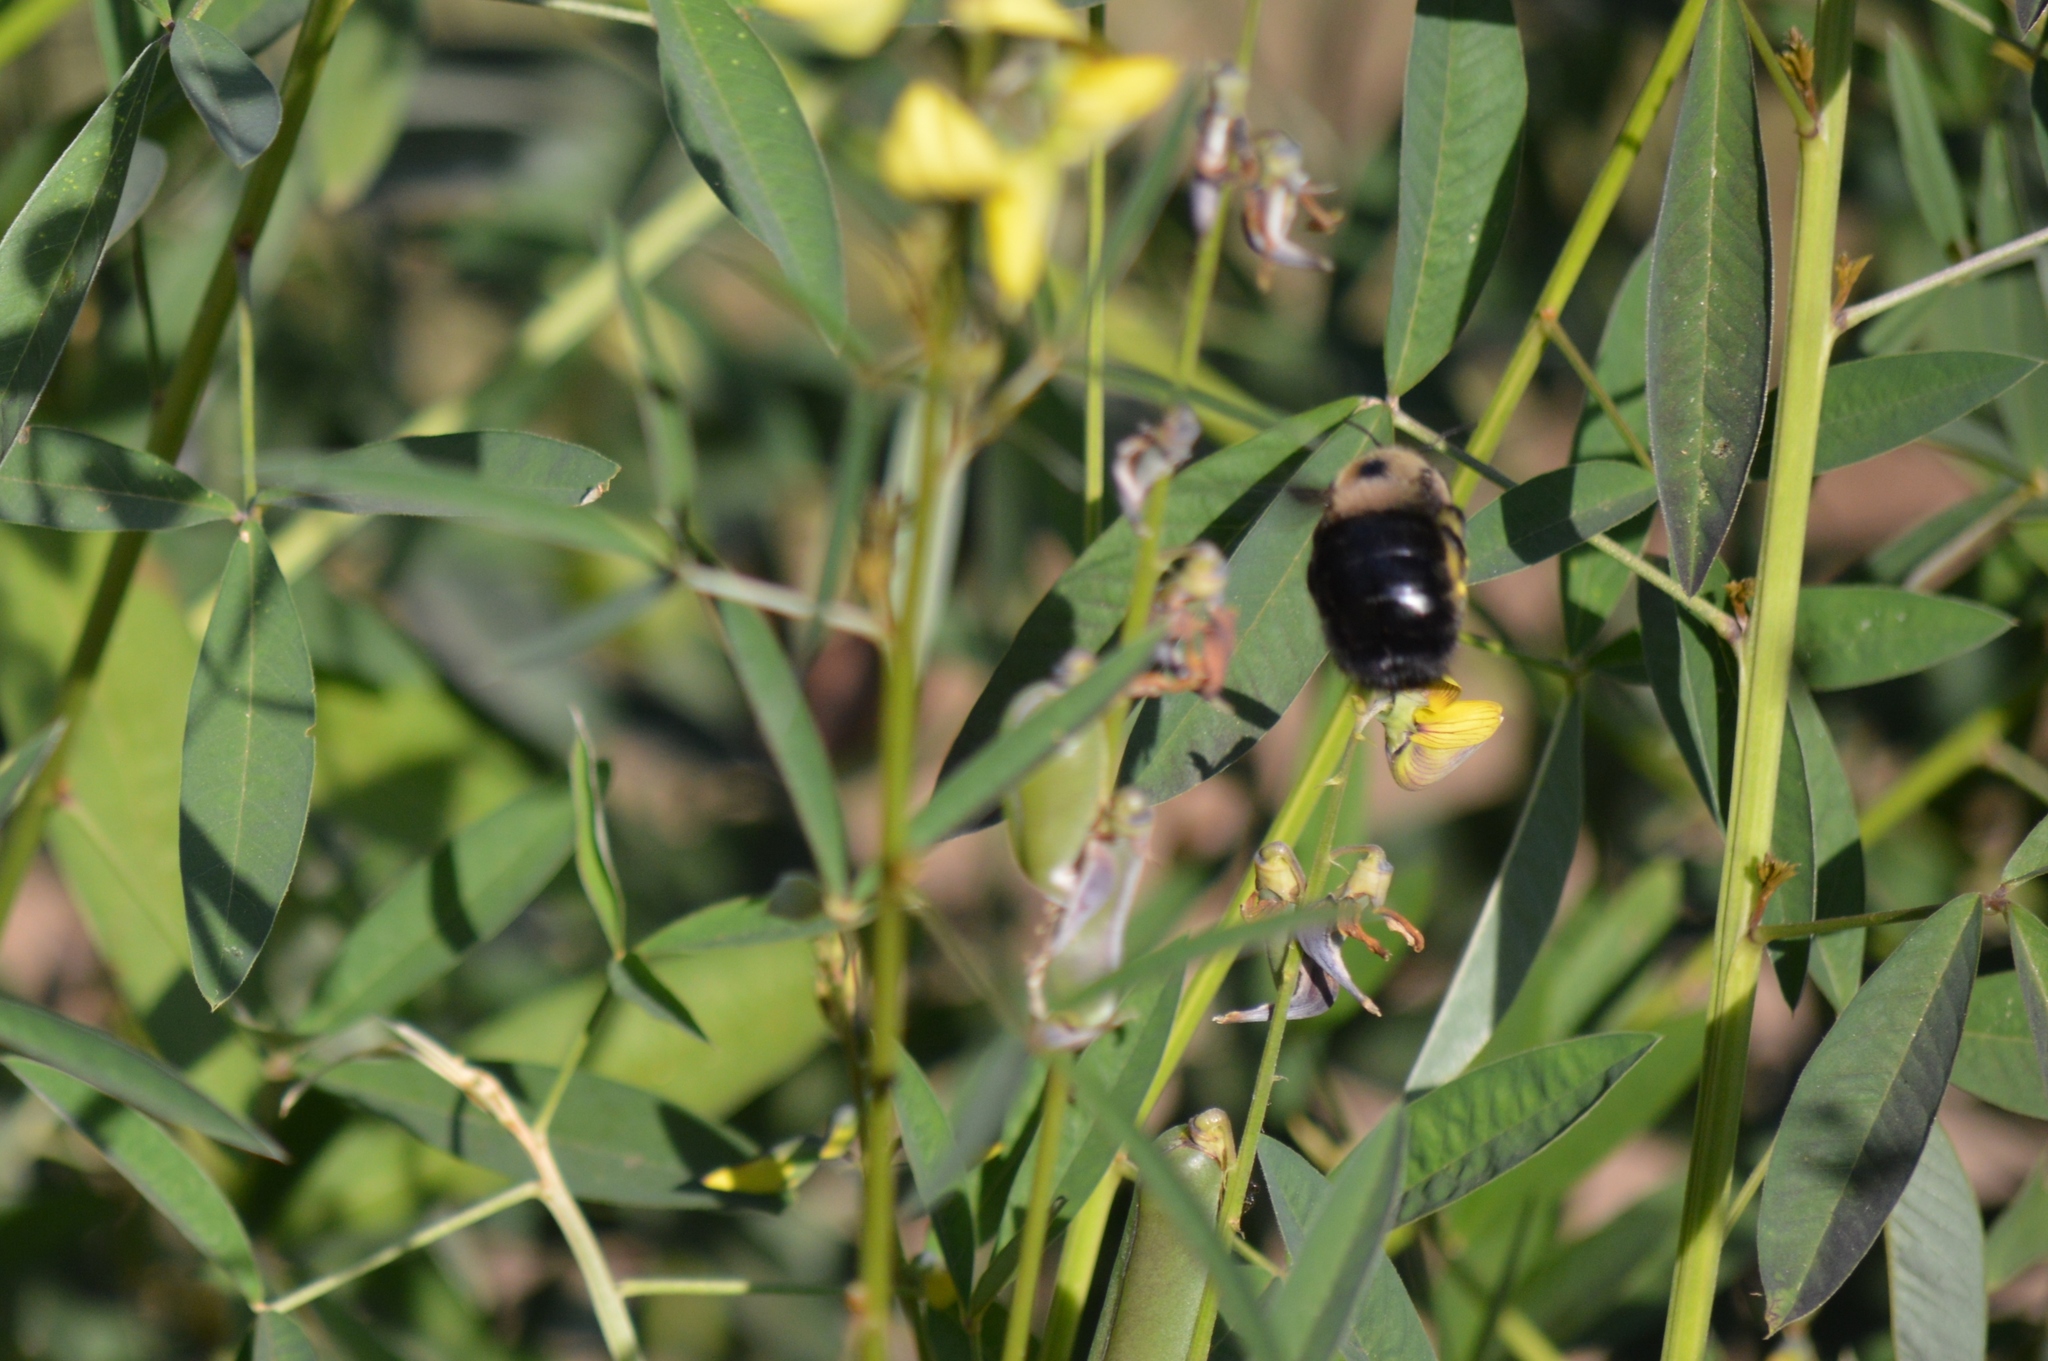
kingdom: Animalia
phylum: Arthropoda
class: Insecta
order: Hymenoptera
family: Apidae
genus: Xylocopa
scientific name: Xylocopa grisescens
